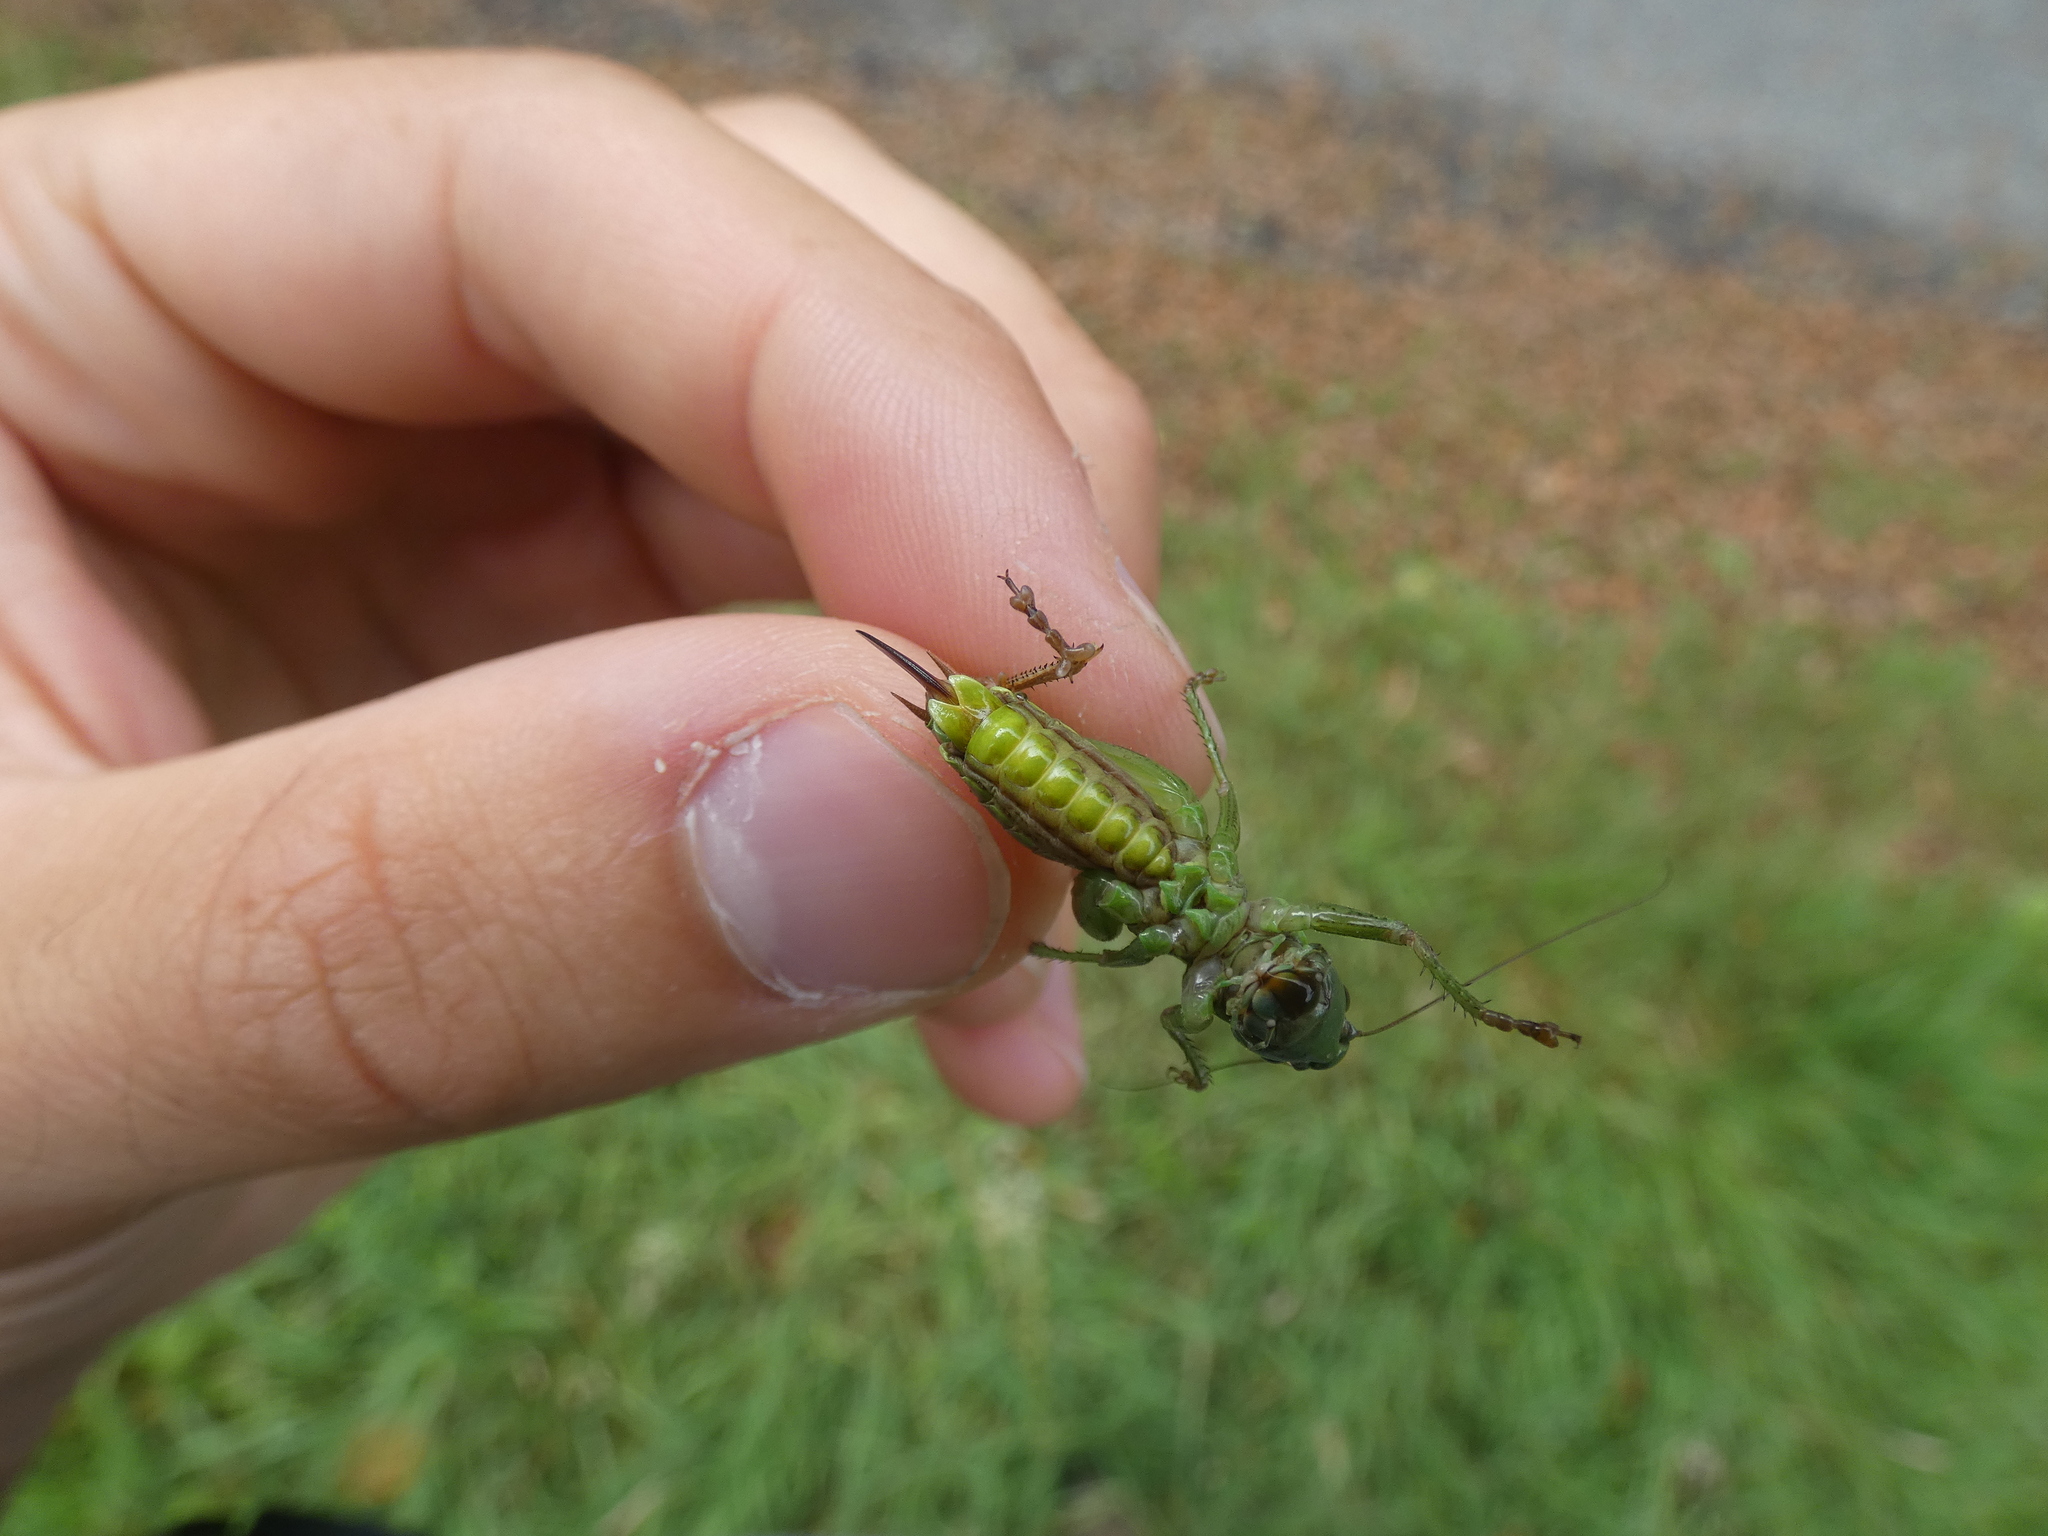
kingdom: Animalia
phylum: Arthropoda
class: Insecta
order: Orthoptera
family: Tettigoniidae
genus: Roeseliana
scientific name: Roeseliana roeselii
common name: Roesel's bush cricket
